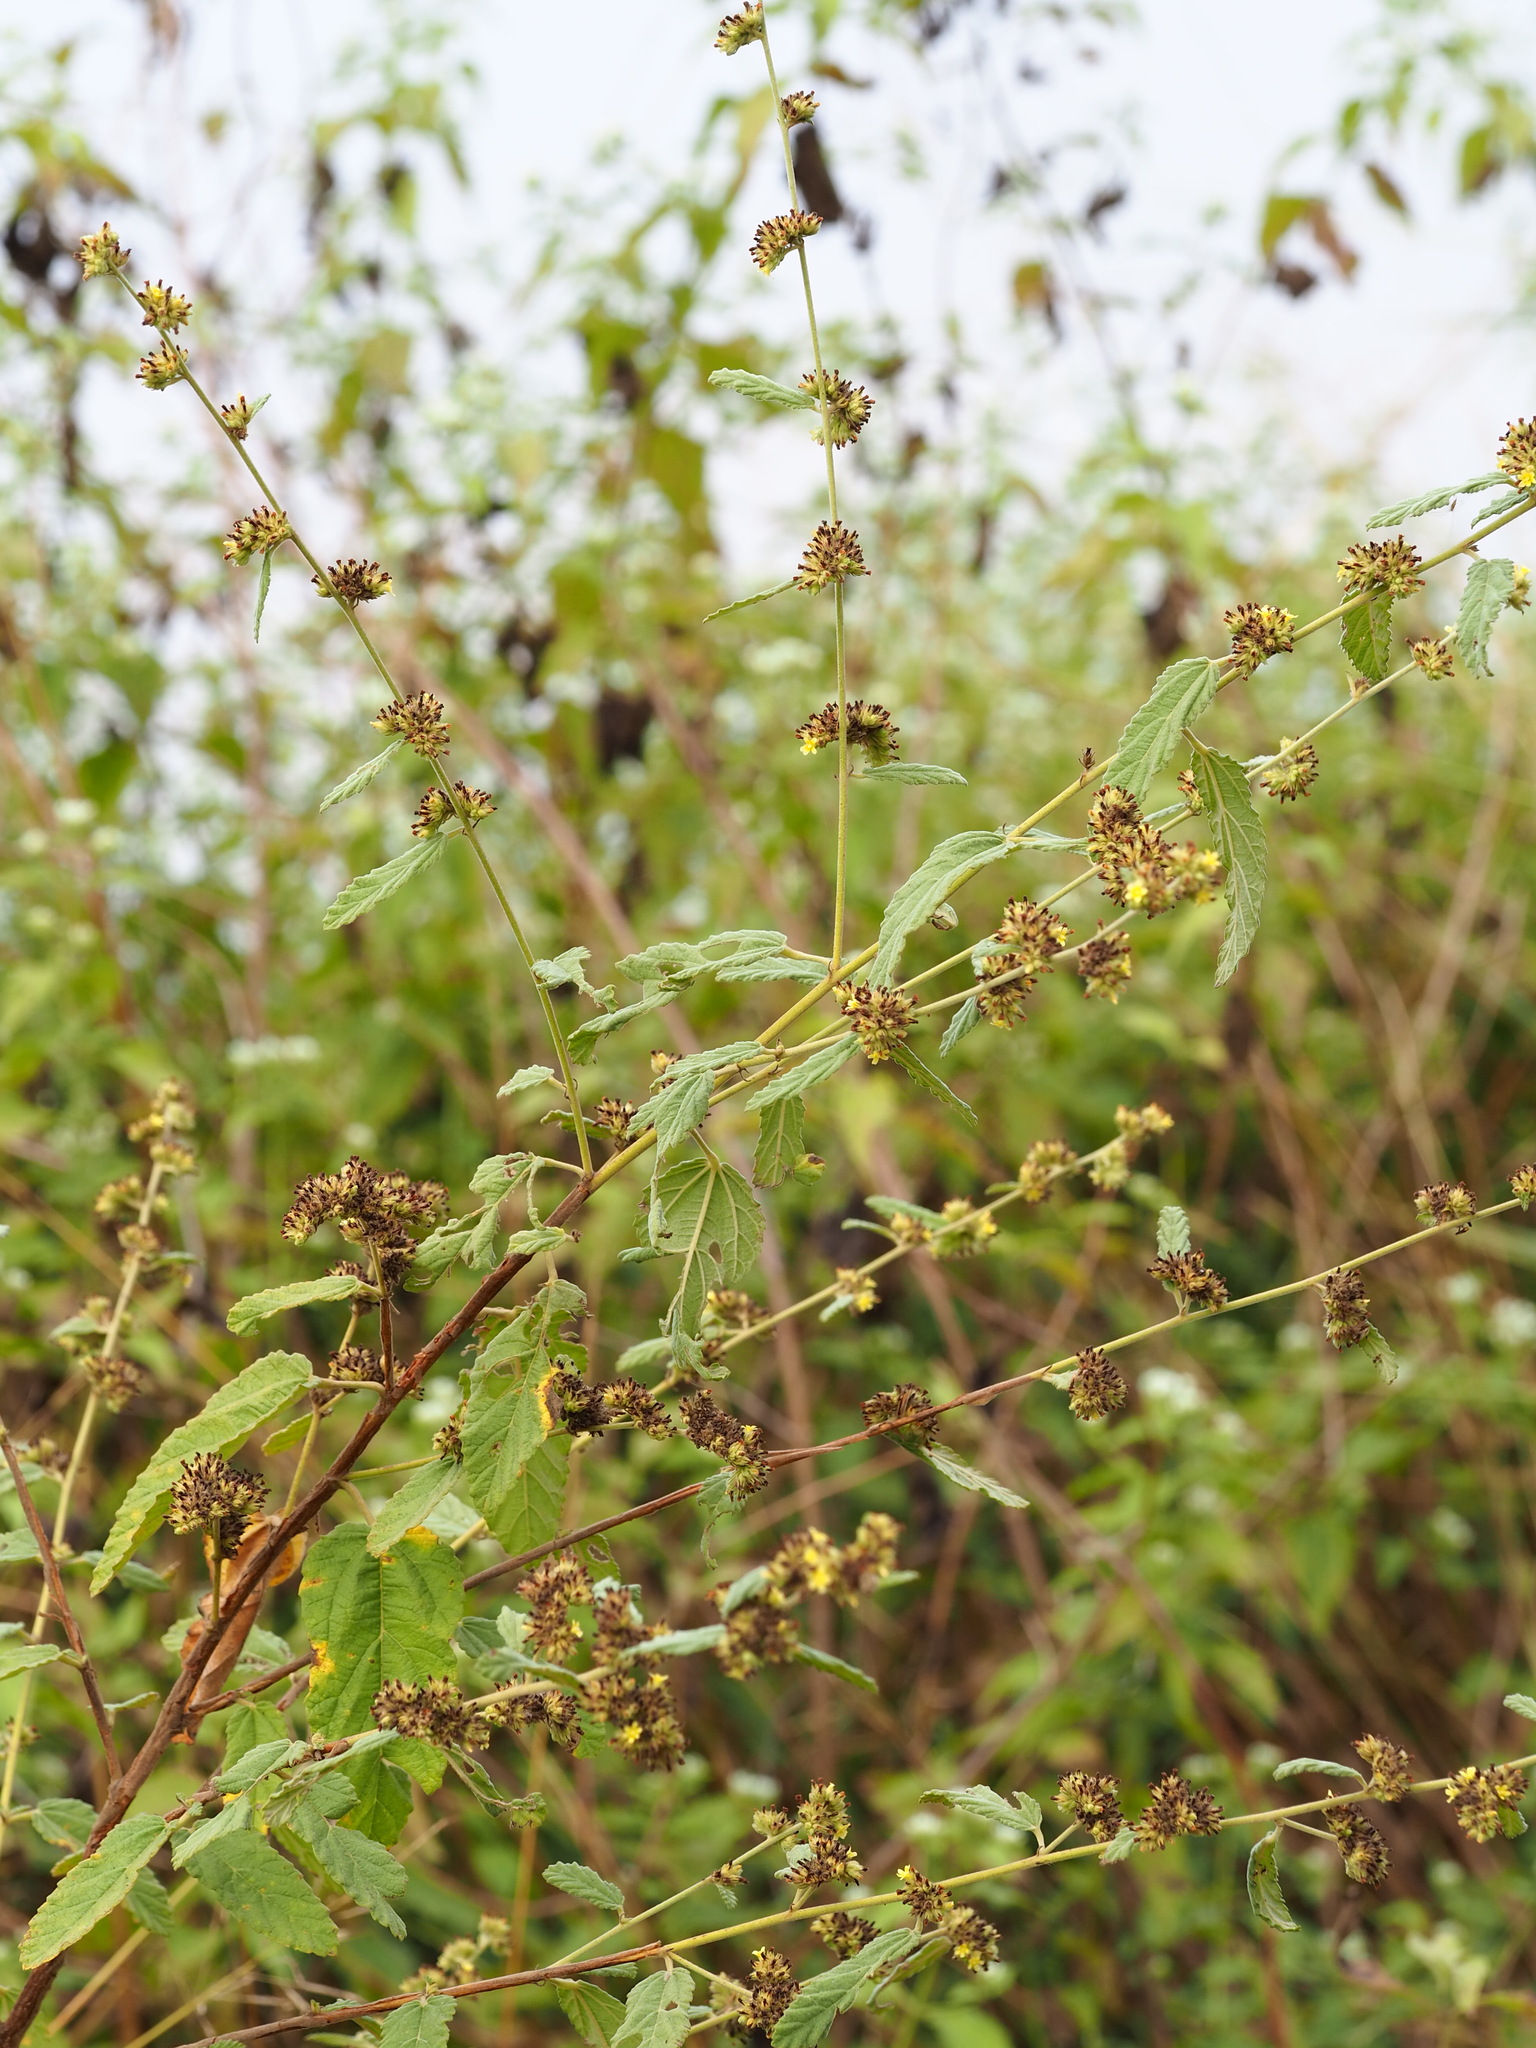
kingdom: Plantae
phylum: Tracheophyta
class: Magnoliopsida
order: Malvales
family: Malvaceae
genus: Waltheria
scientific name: Waltheria indica
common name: Leather-coat
